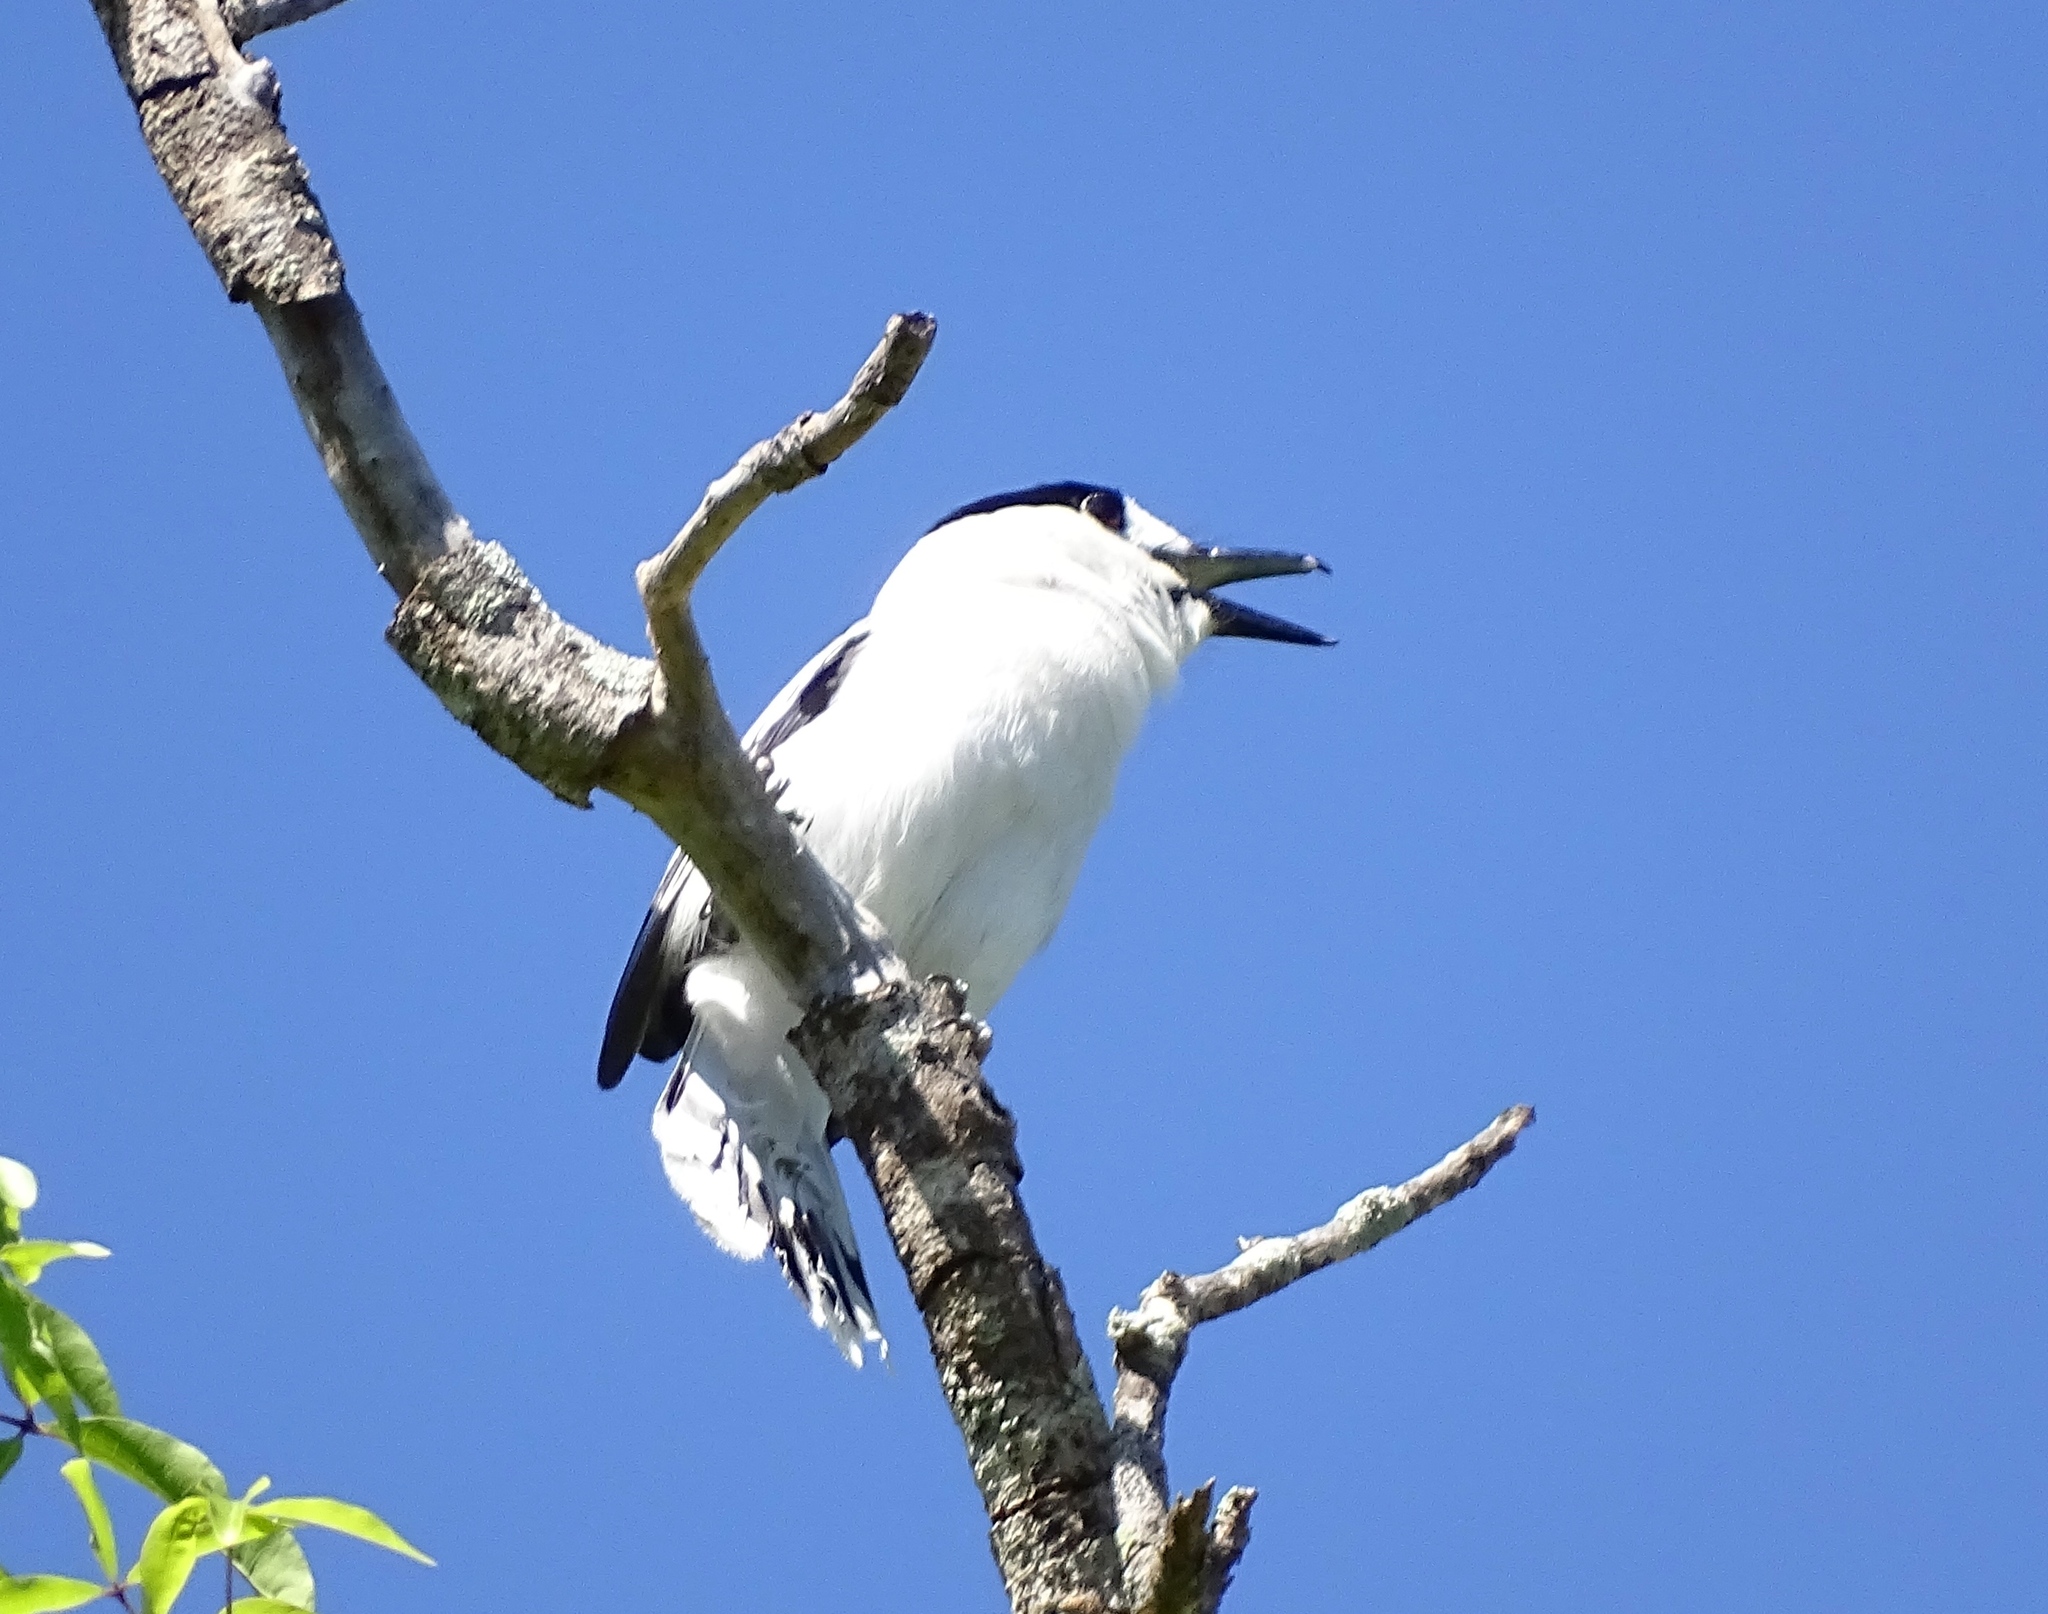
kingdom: Animalia
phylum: Chordata
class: Aves
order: Passeriformes
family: Vangidae
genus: Vanga
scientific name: Vanga curvirostris
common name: Hook-billed vanga
